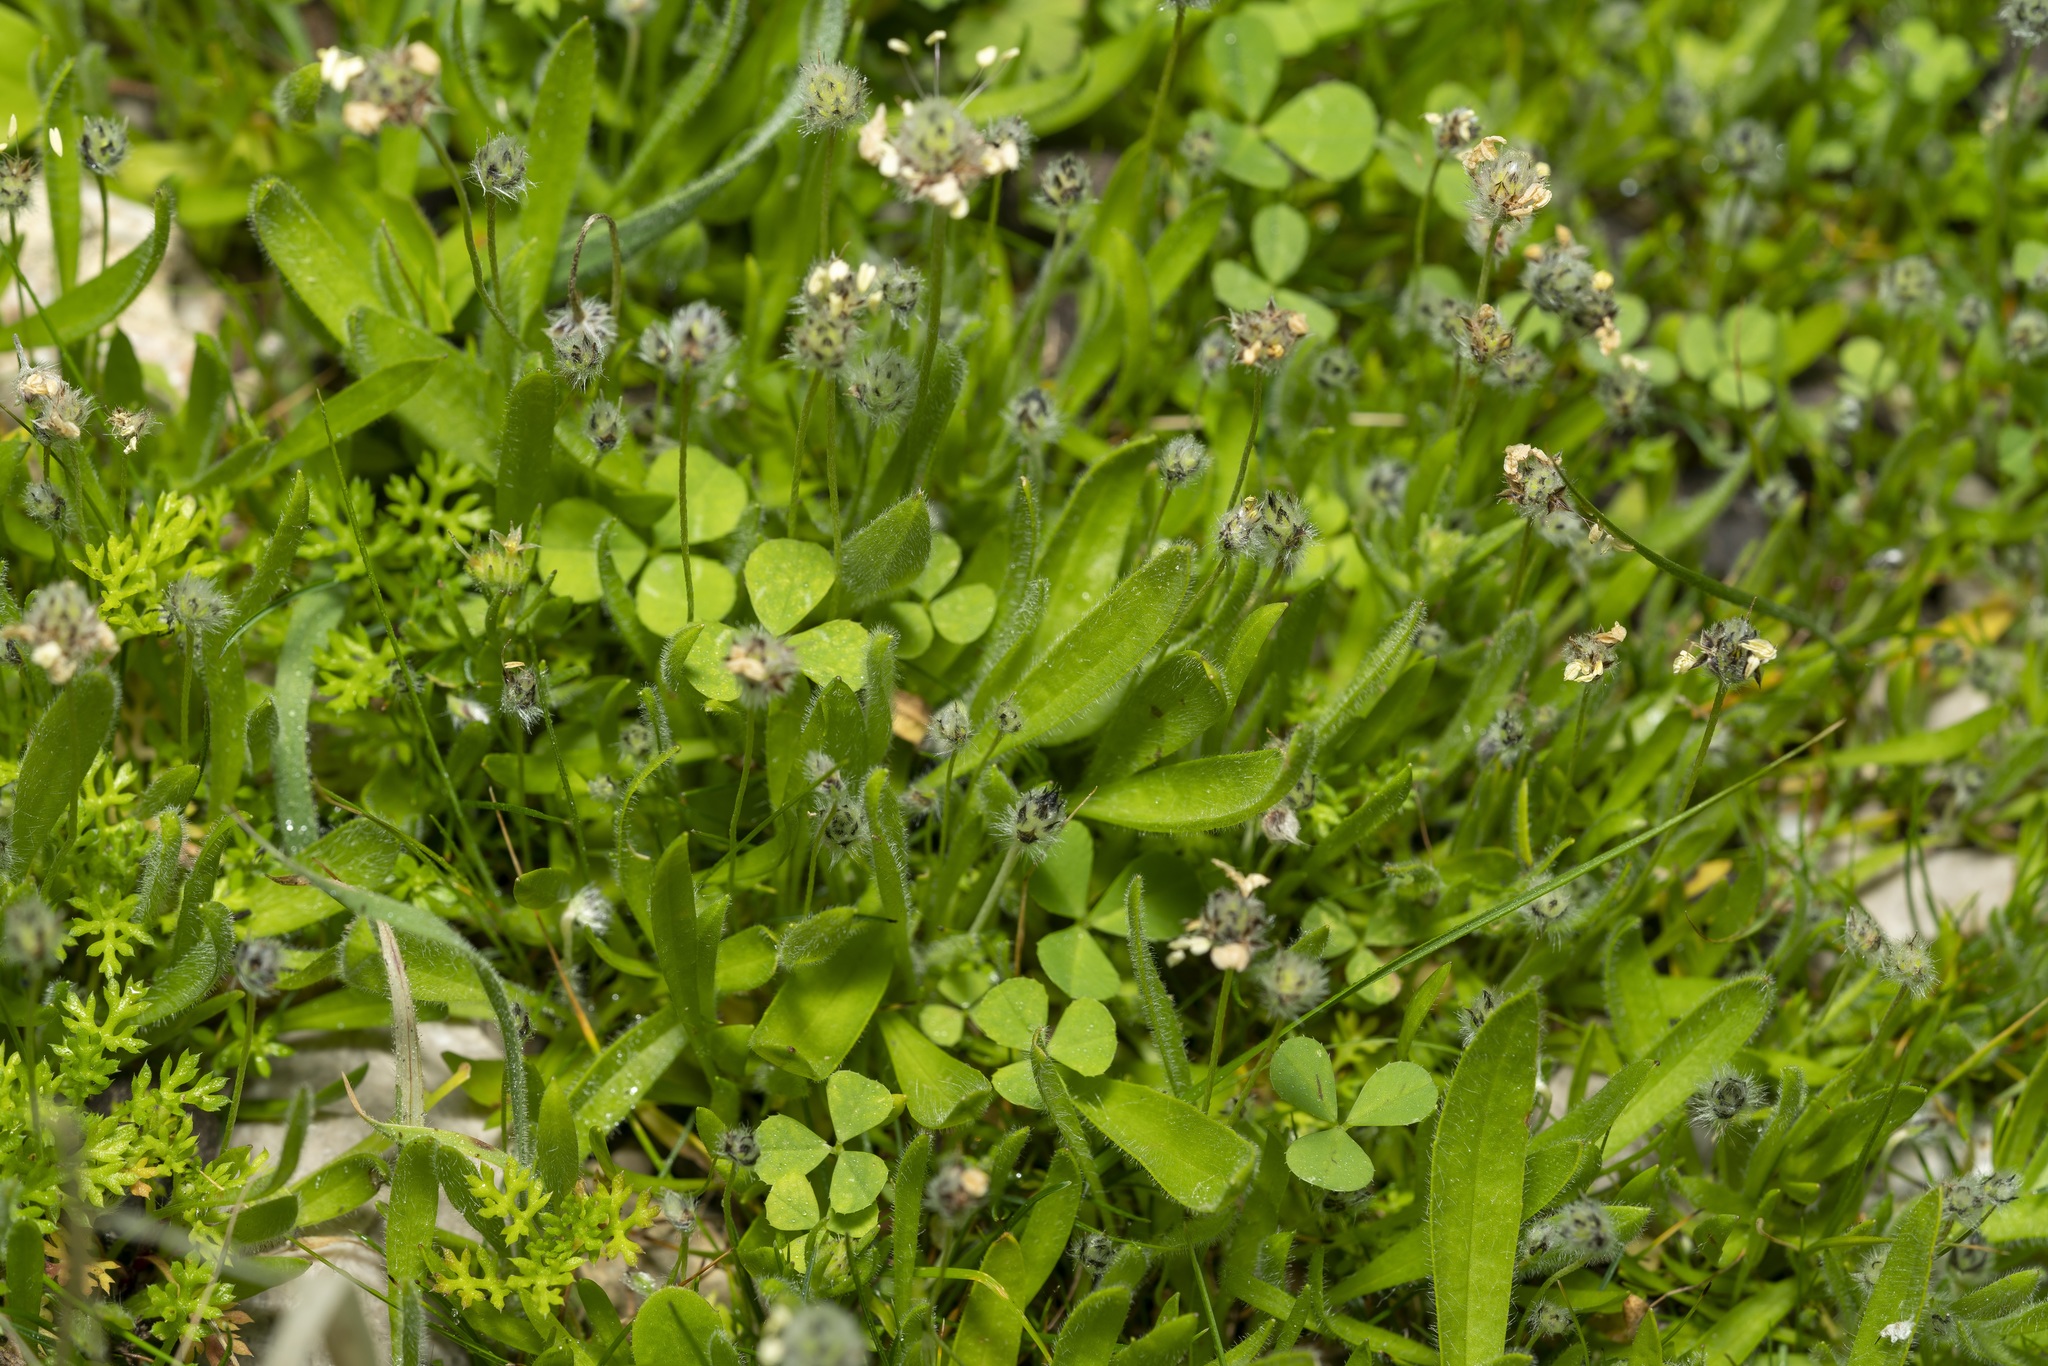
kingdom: Plantae
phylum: Tracheophyta
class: Magnoliopsida
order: Lamiales
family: Plantaginaceae
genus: Plantago
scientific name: Plantago lagopus
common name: Hare-foot plantain
